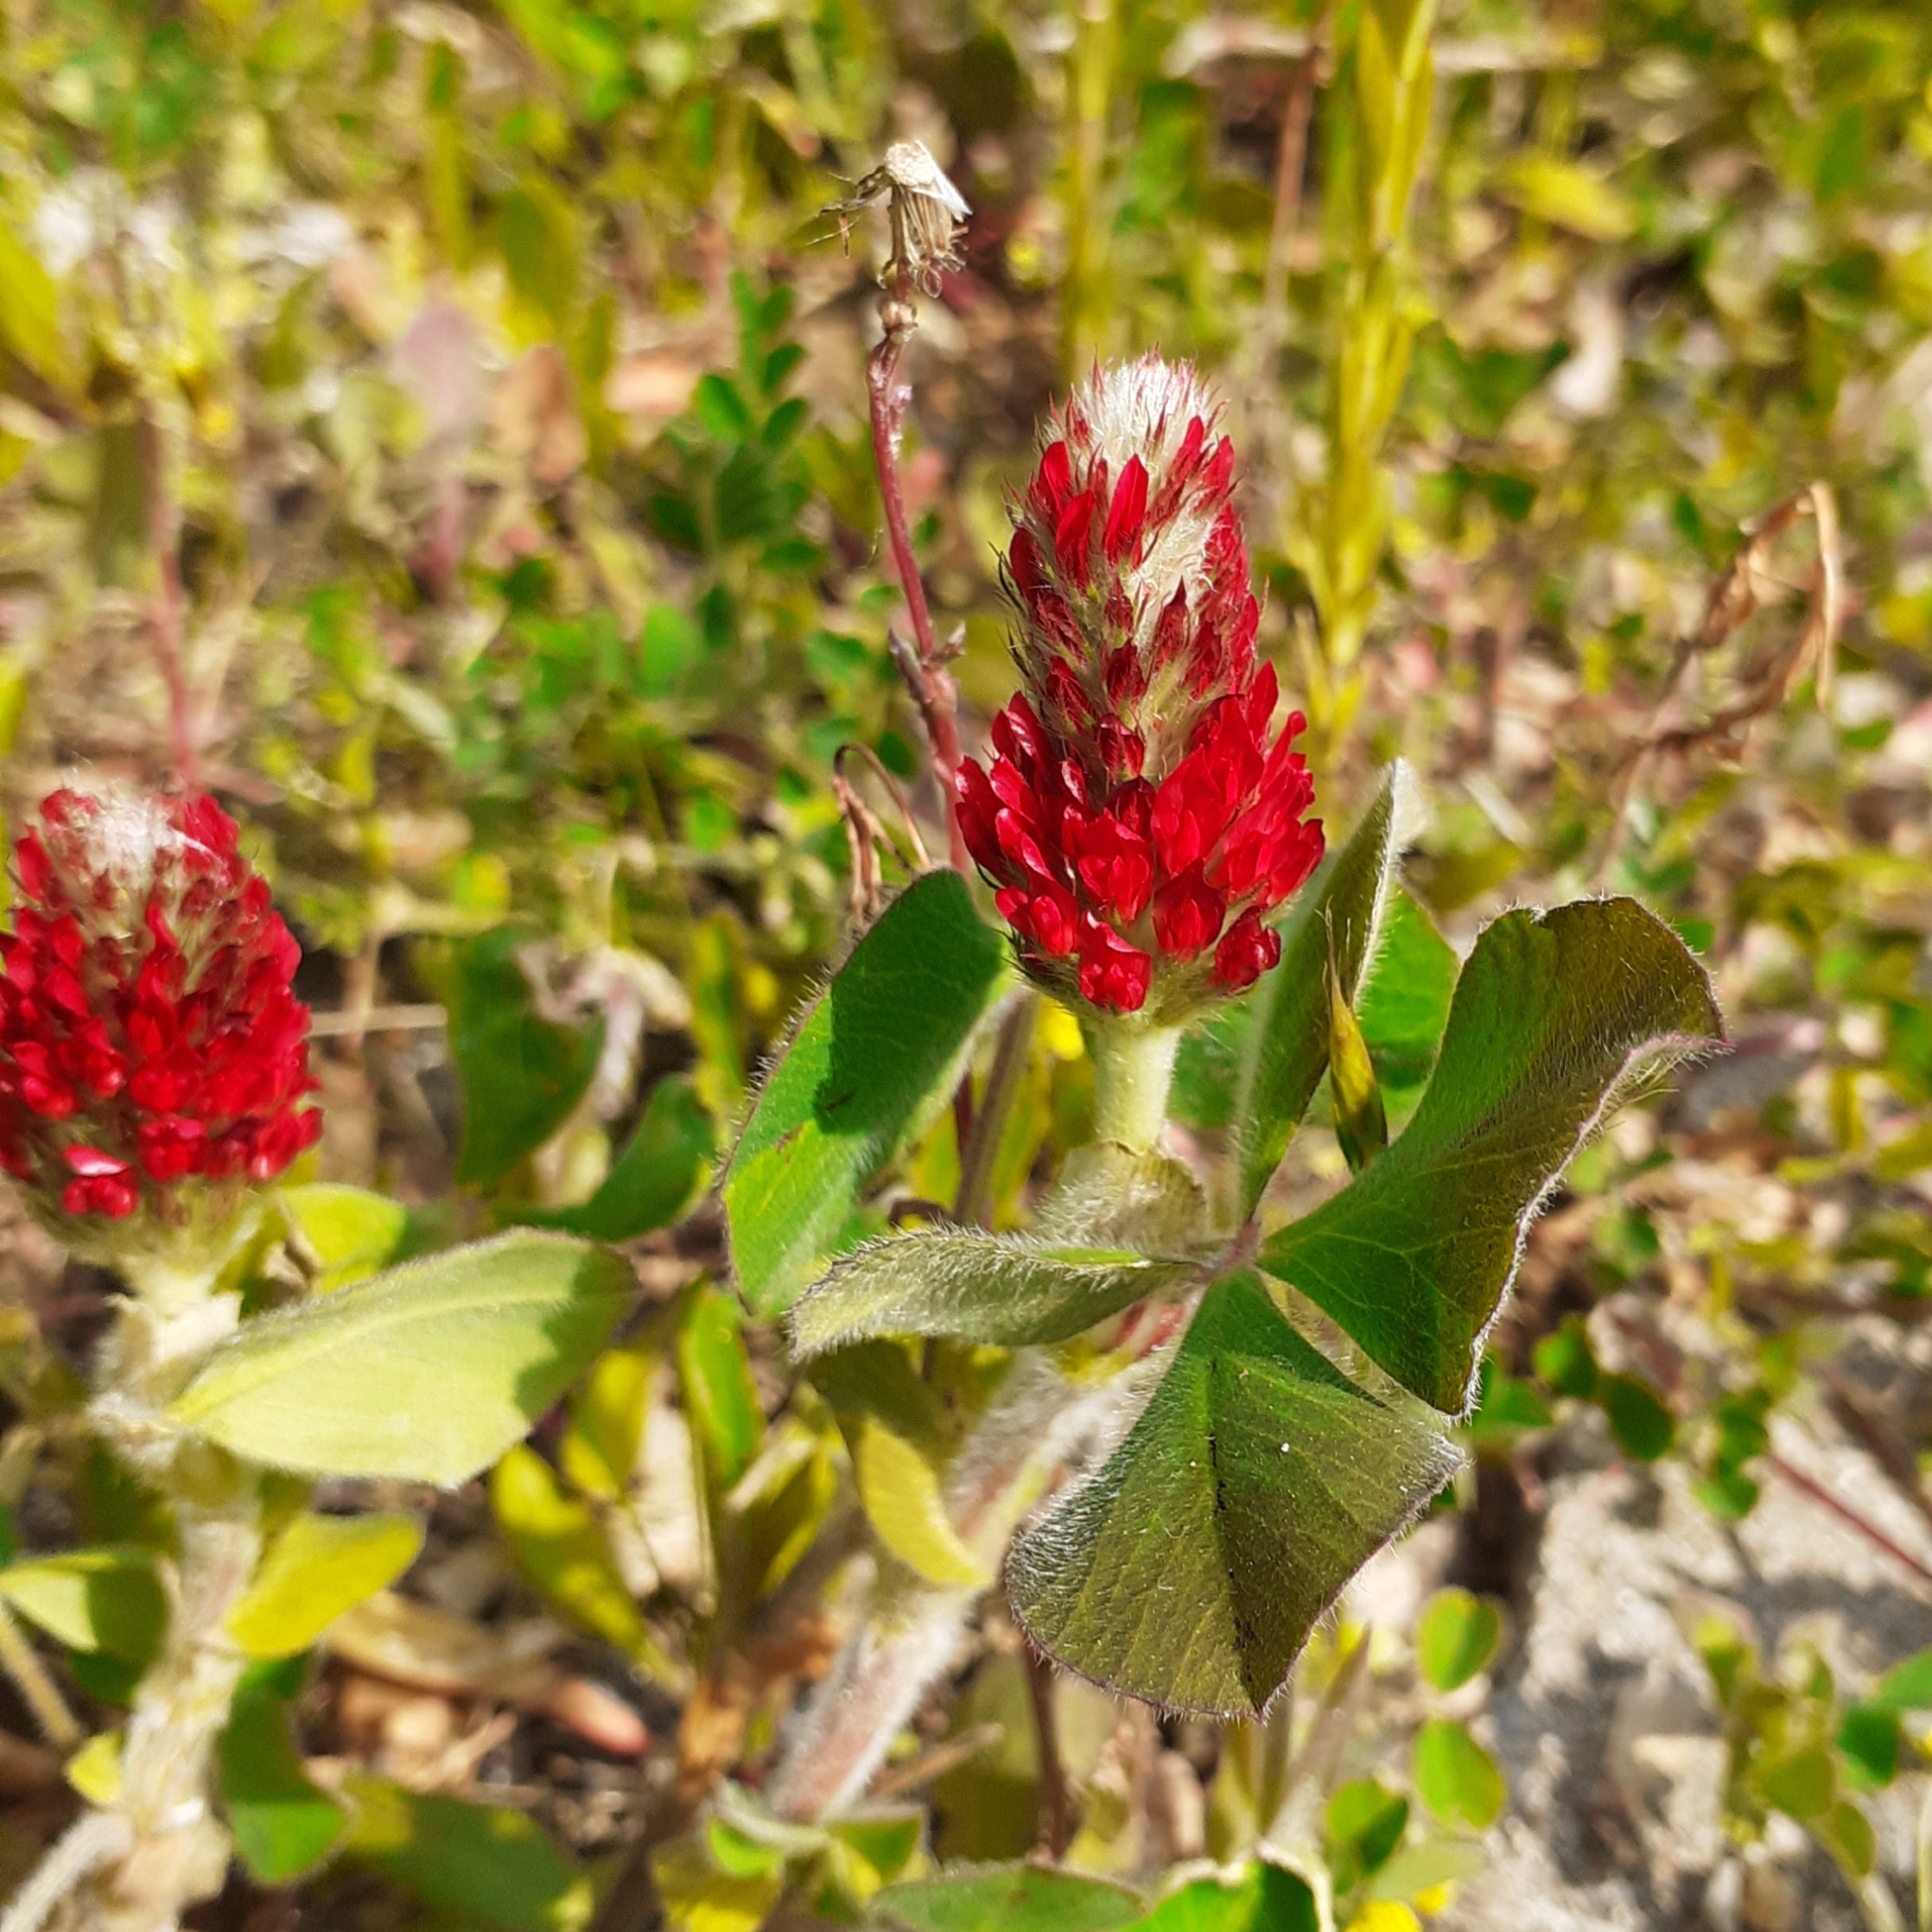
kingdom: Plantae
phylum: Tracheophyta
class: Magnoliopsida
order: Fabales
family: Fabaceae
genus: Trifolium
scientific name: Trifolium incarnatum
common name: Crimson clover
